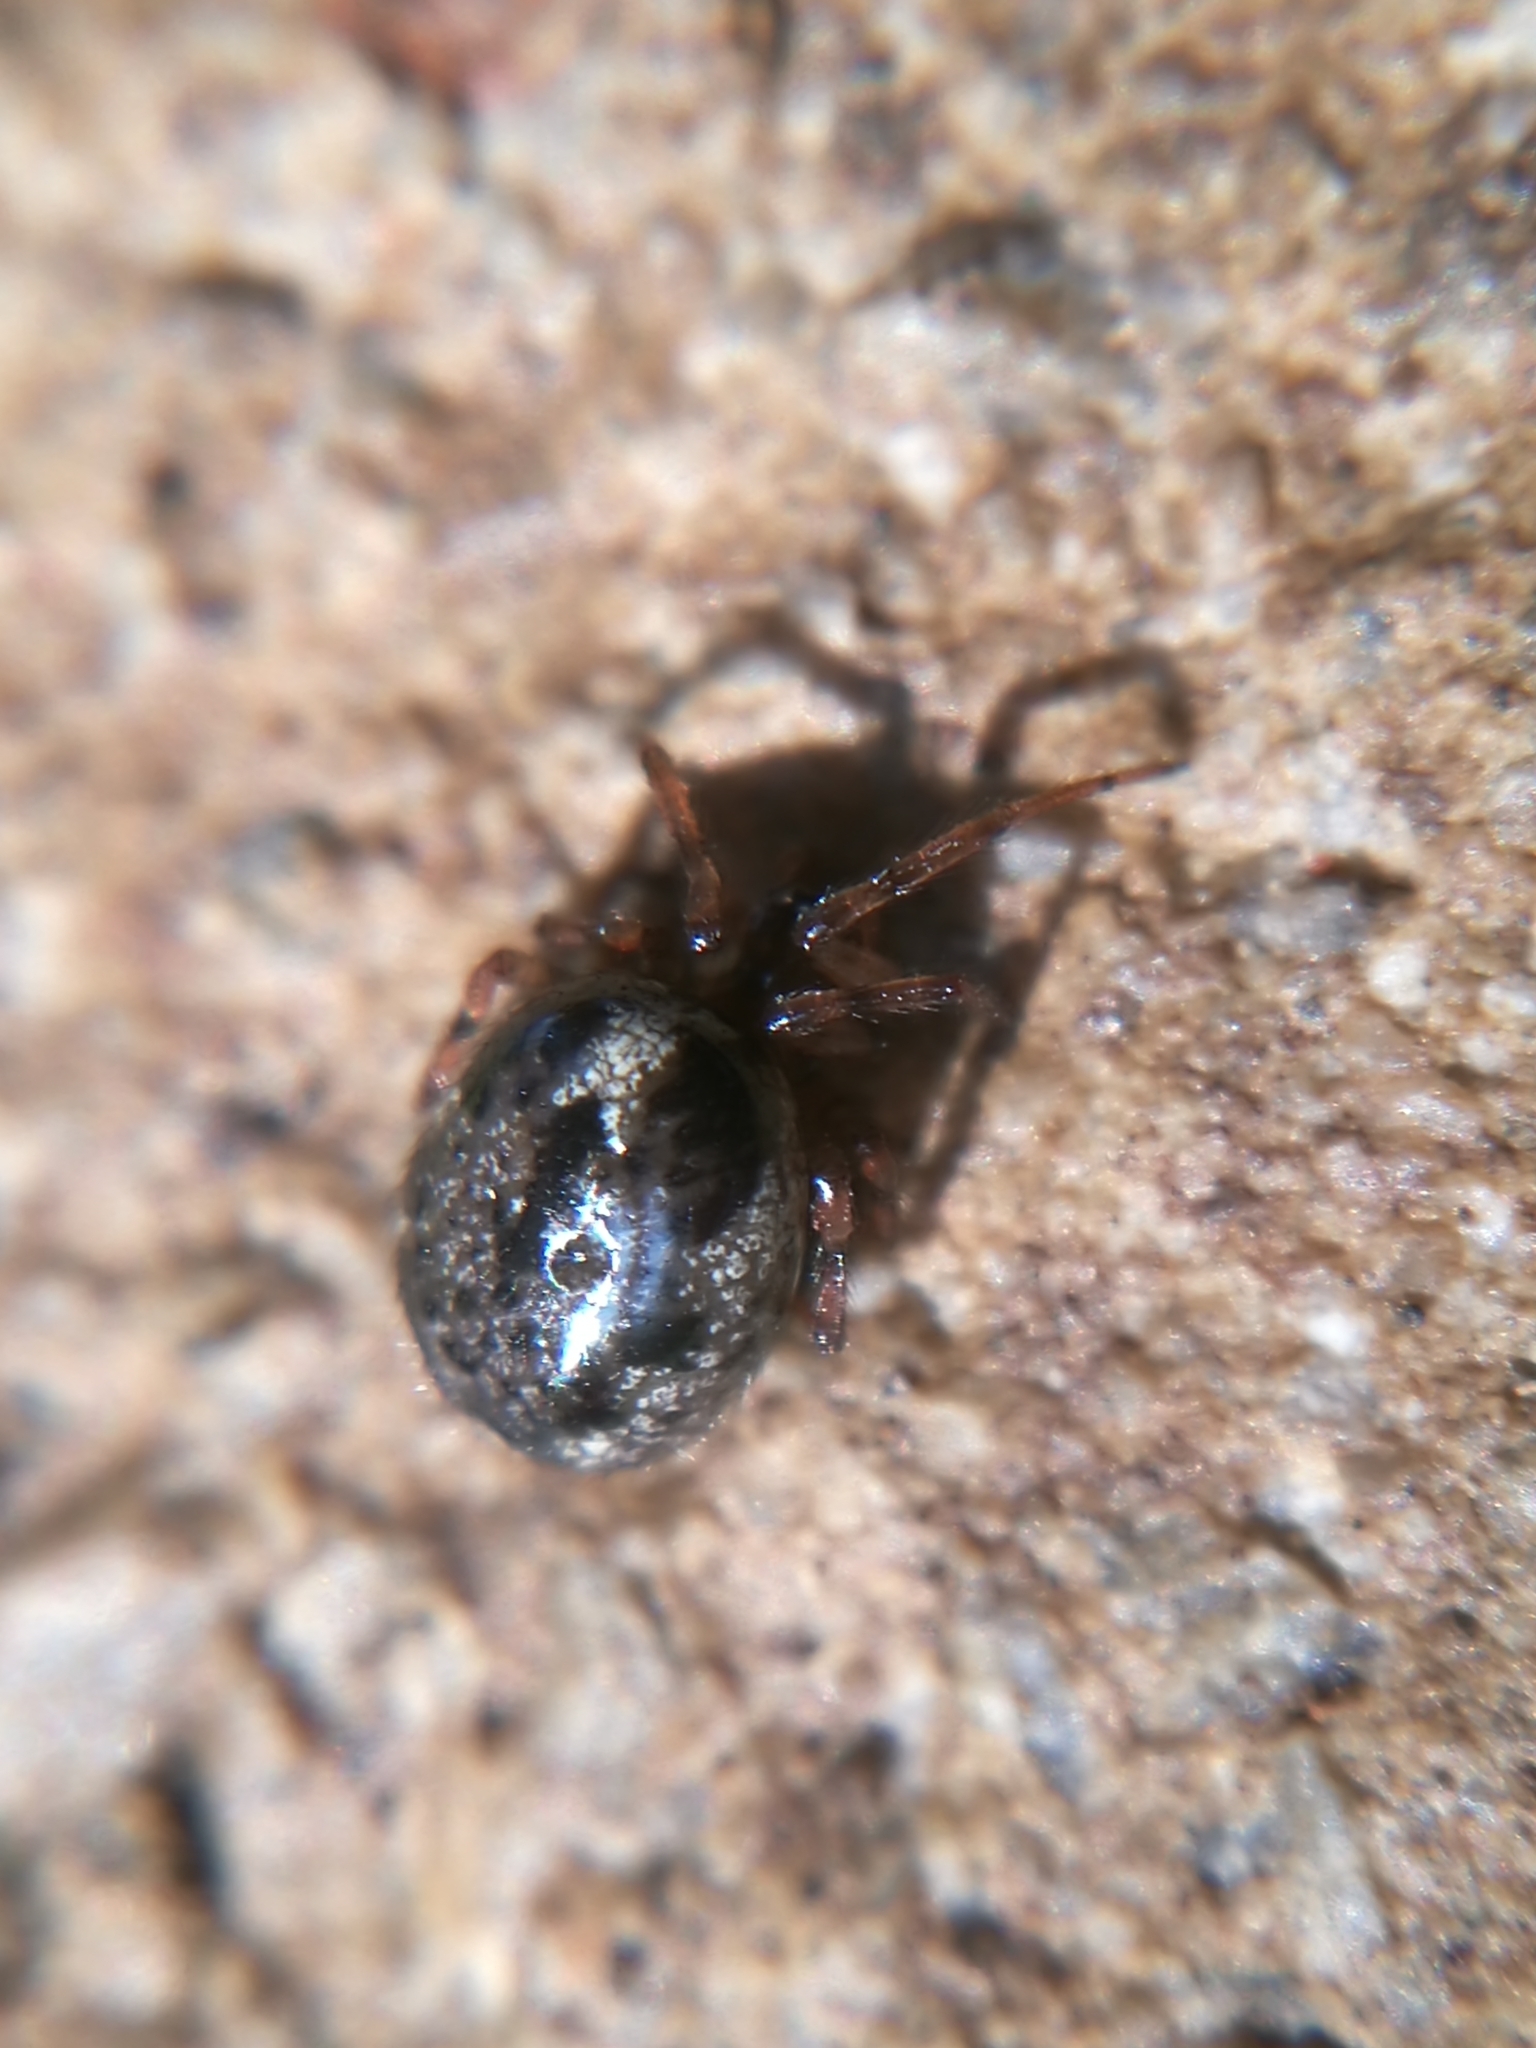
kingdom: Animalia
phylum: Arthropoda
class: Arachnida
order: Araneae
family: Theridiidae
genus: Enoplognatha
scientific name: Enoplognatha mandibularis
